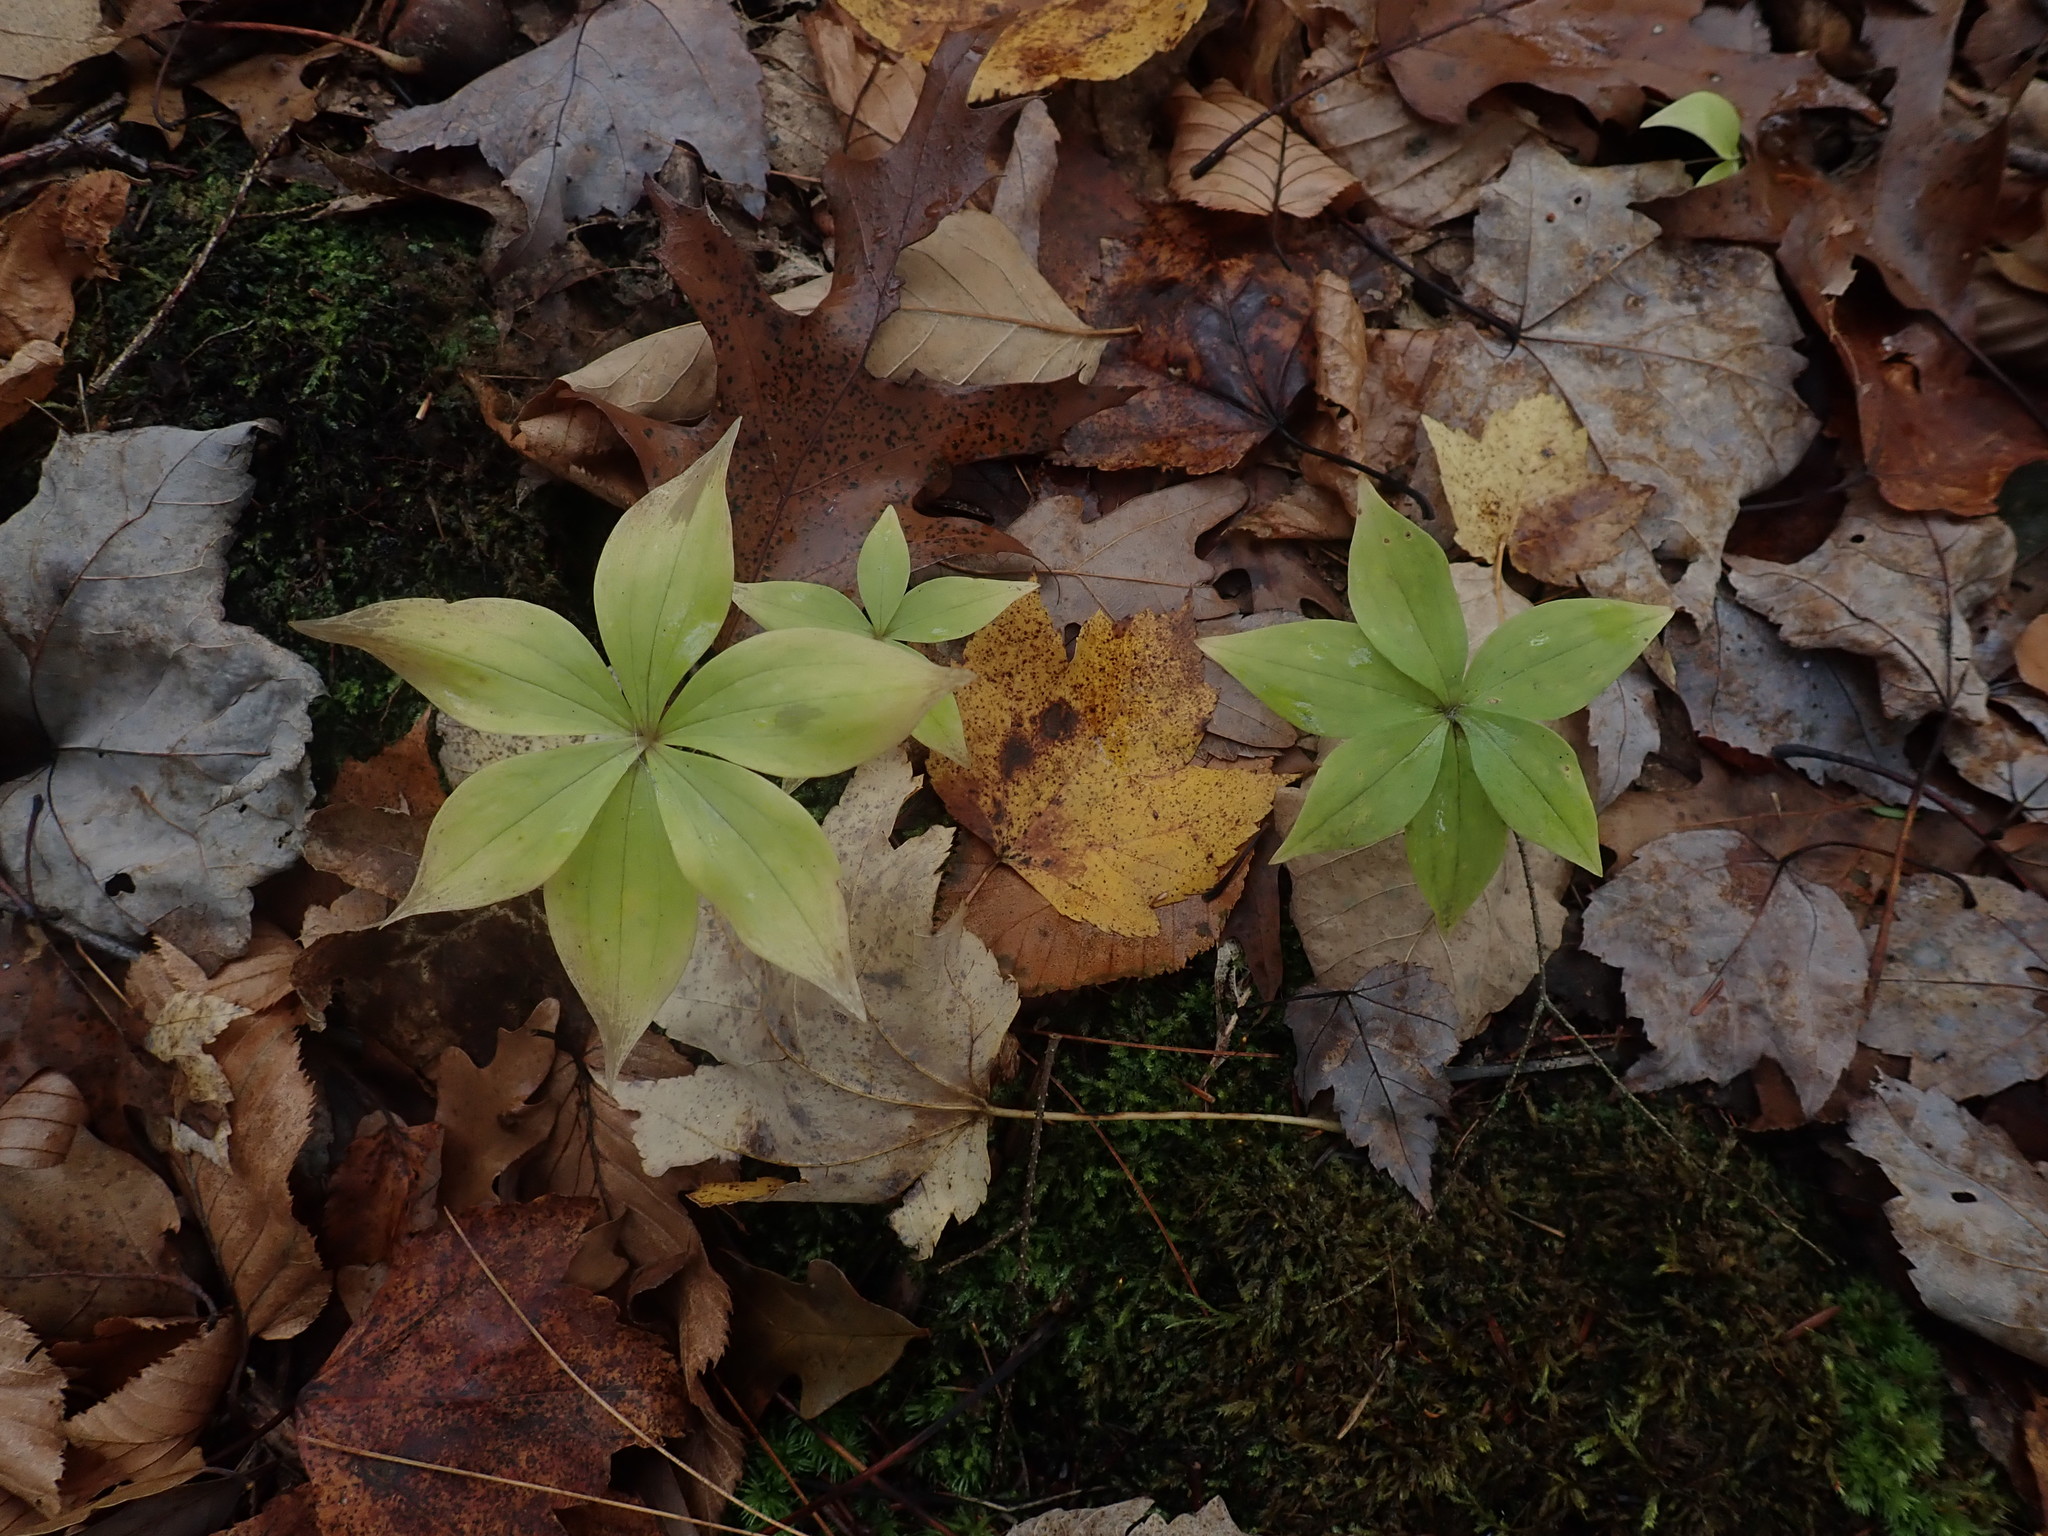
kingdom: Plantae
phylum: Tracheophyta
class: Liliopsida
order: Liliales
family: Liliaceae
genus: Medeola
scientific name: Medeola virginiana
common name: Indian cucumber-root
